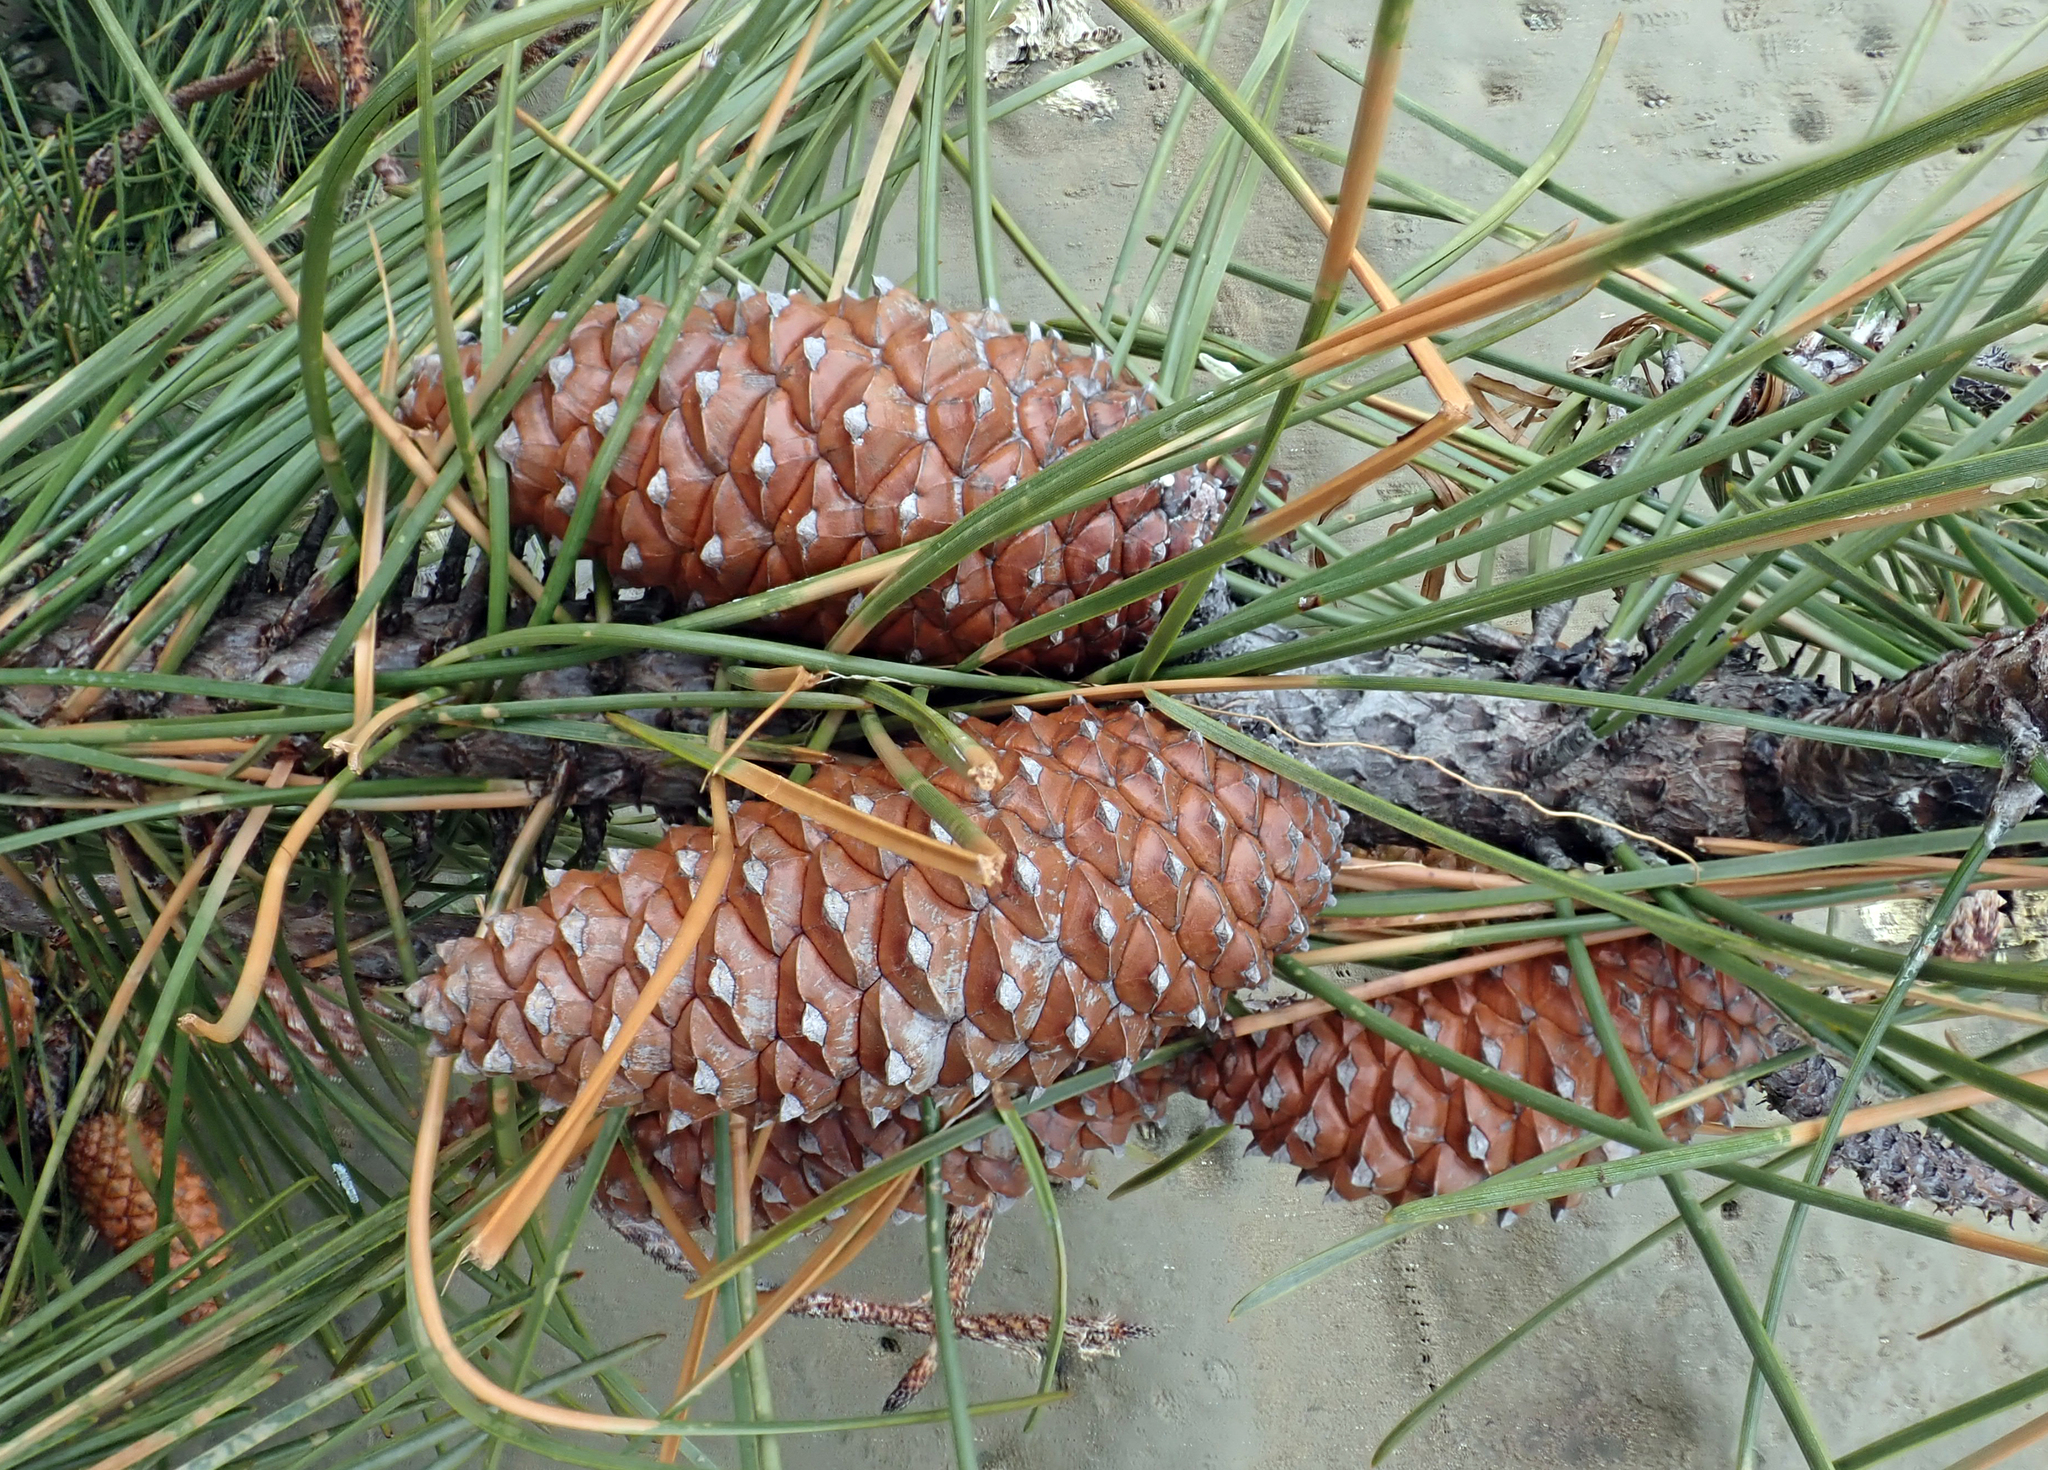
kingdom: Plantae
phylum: Tracheophyta
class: Pinopsida
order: Pinales
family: Pinaceae
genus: Pinus
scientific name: Pinus pinaster
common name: Maritime pine
